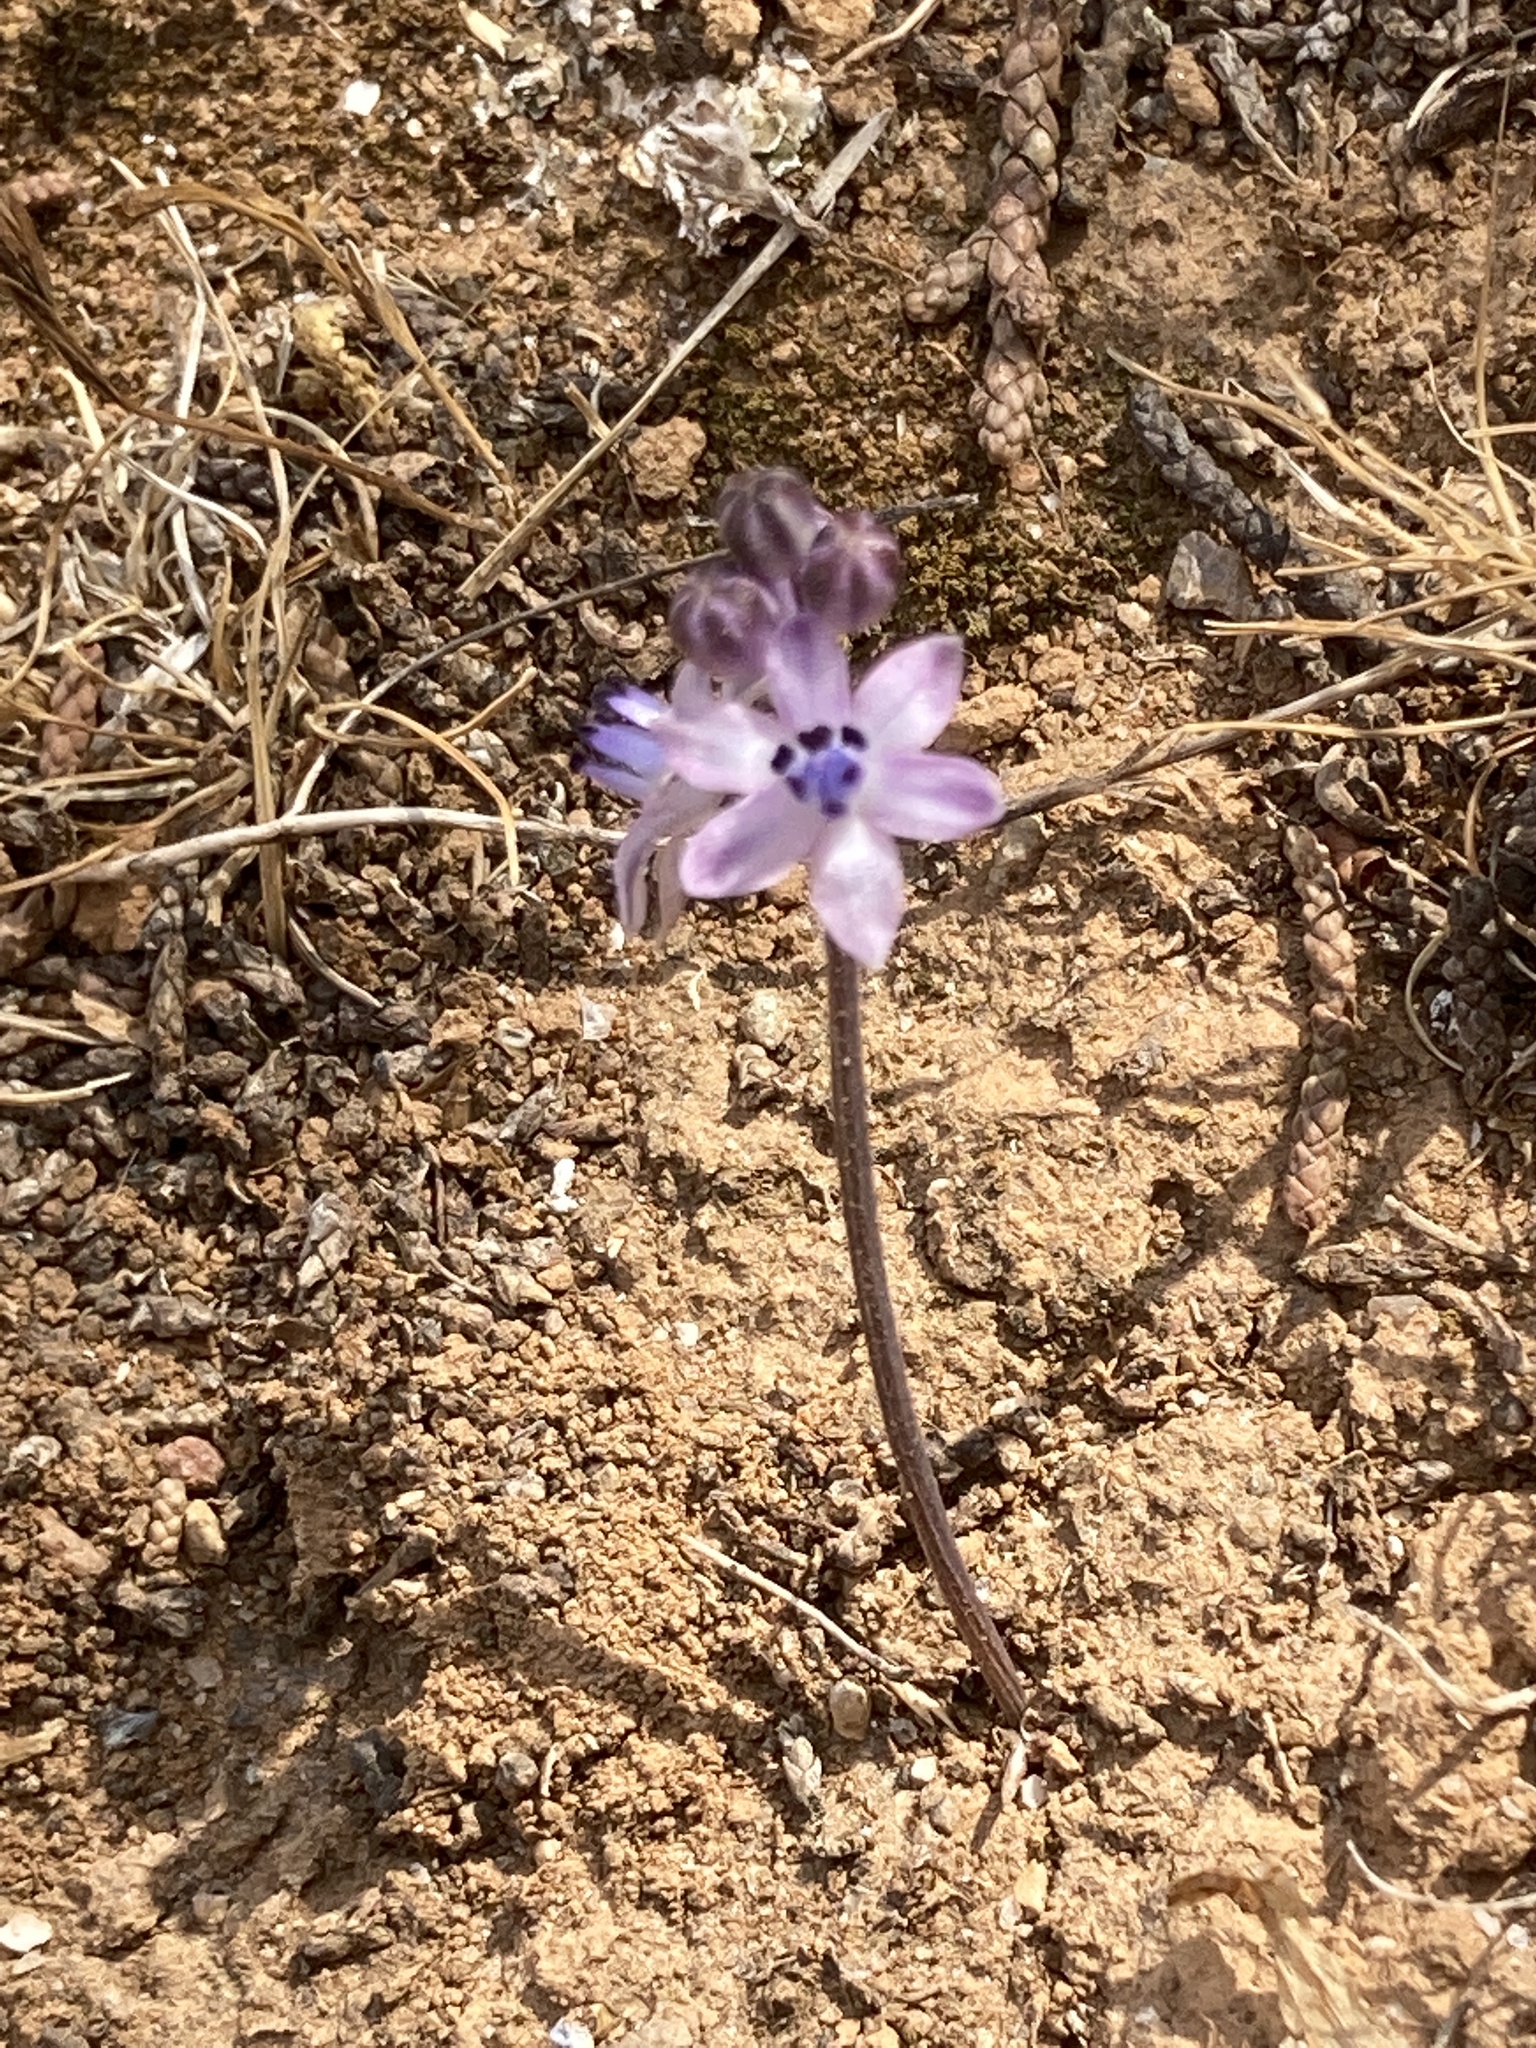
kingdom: Plantae
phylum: Tracheophyta
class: Liliopsida
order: Asparagales
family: Asparagaceae
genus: Prospero
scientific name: Prospero minimum
